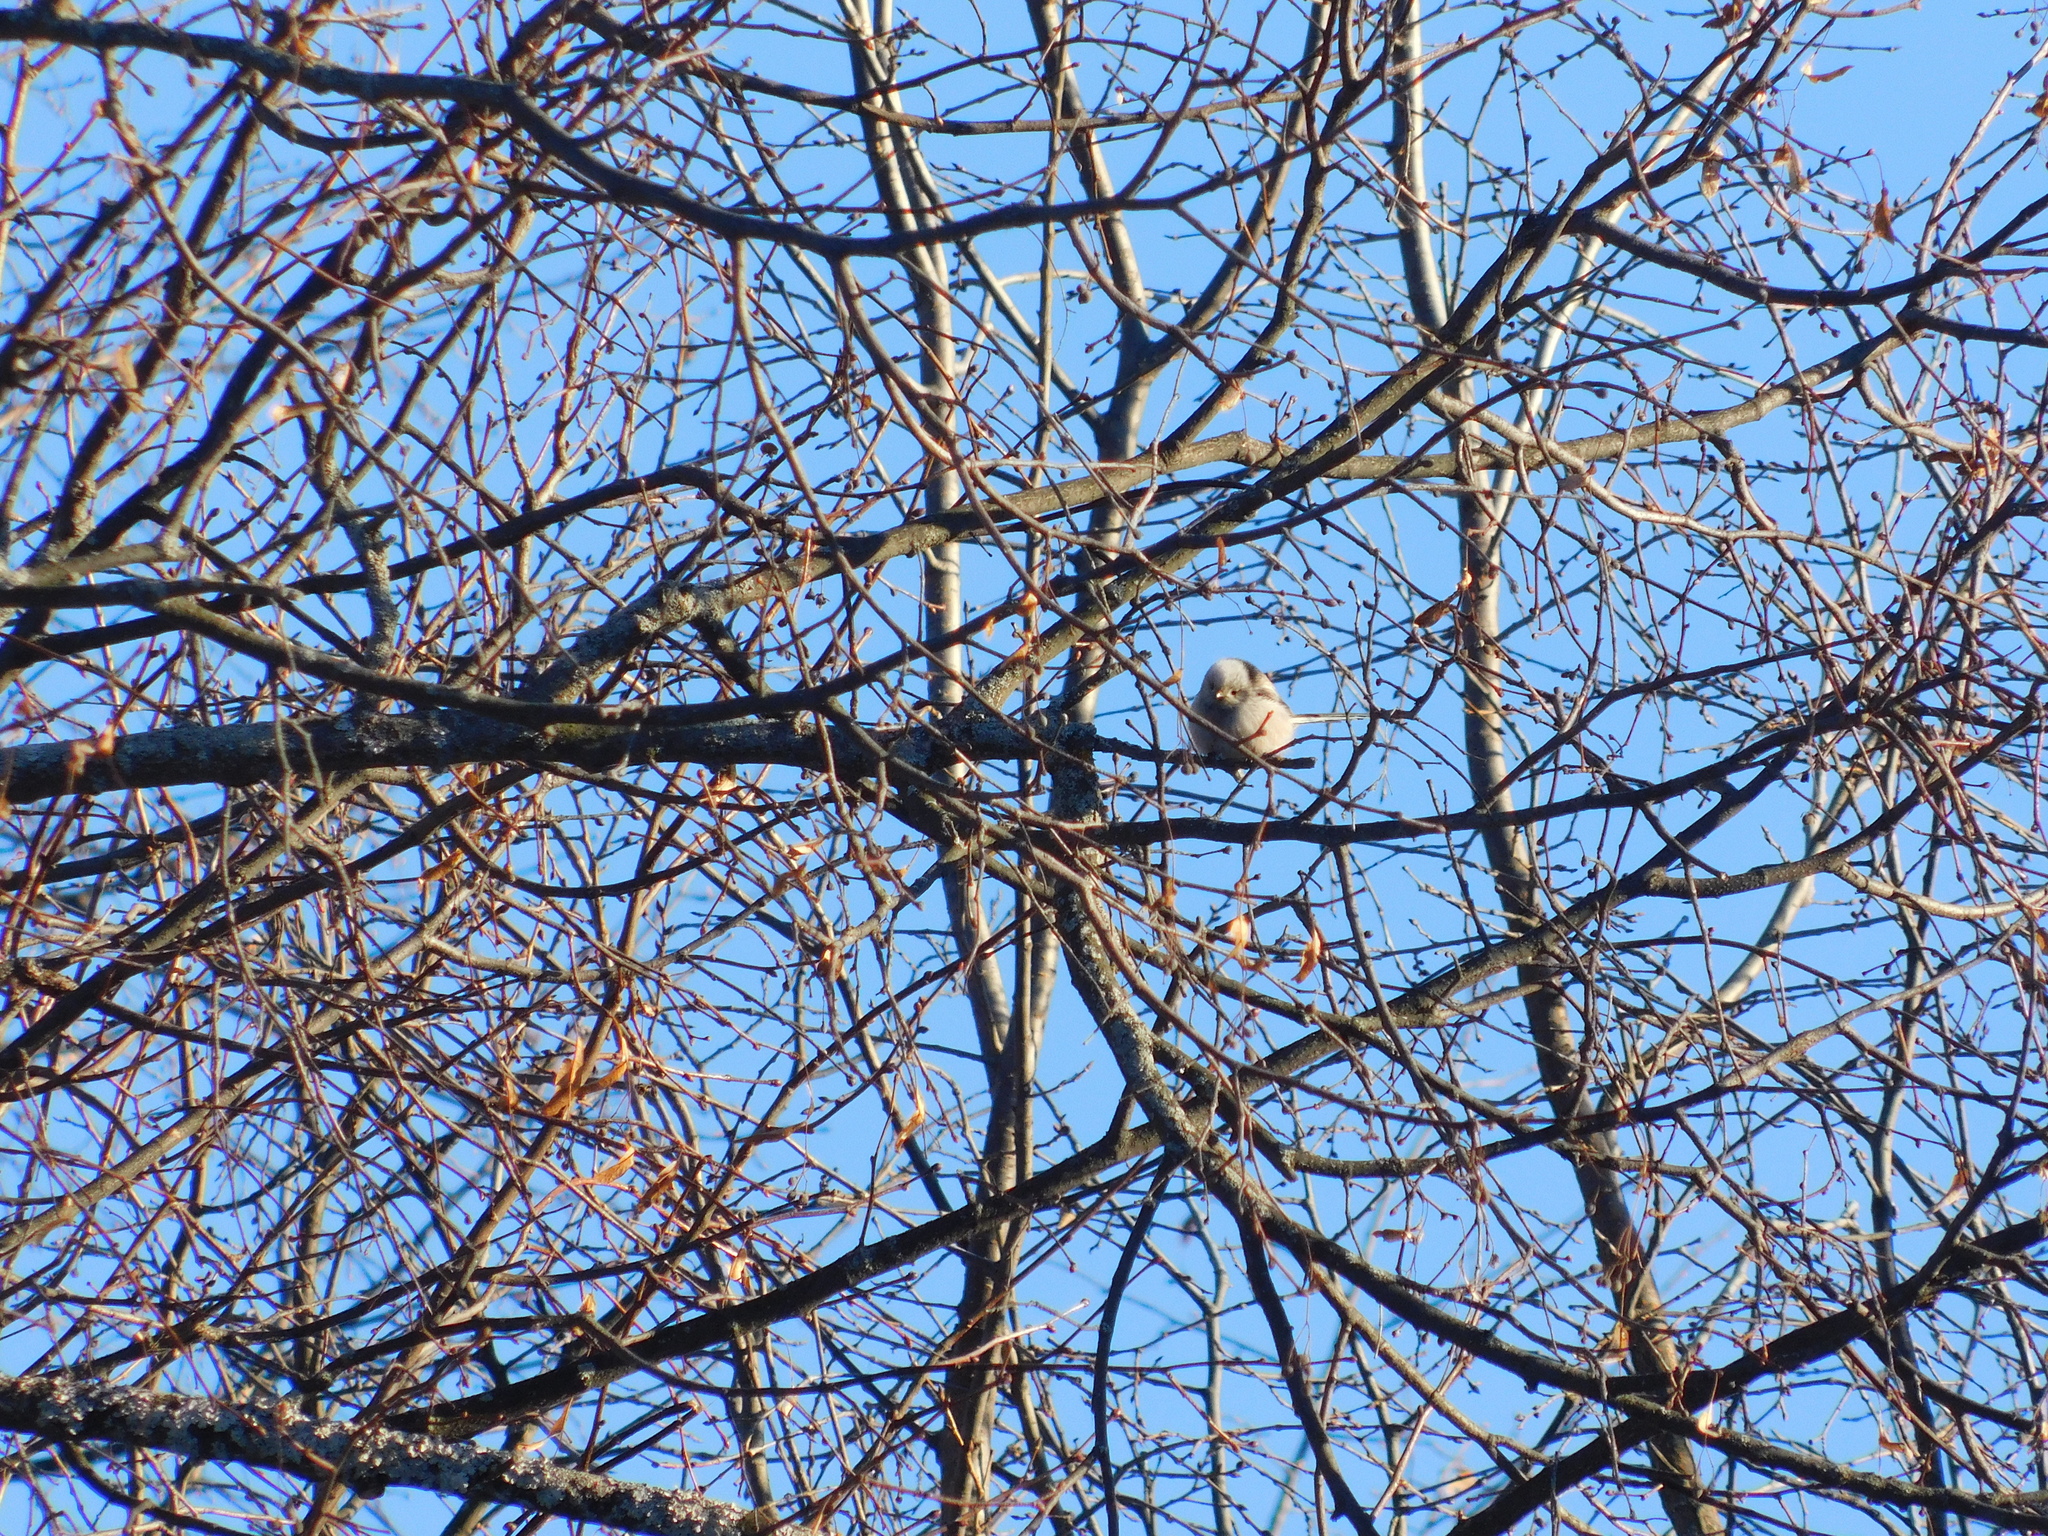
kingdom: Animalia
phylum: Chordata
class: Aves
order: Passeriformes
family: Aegithalidae
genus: Aegithalos
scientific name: Aegithalos caudatus
